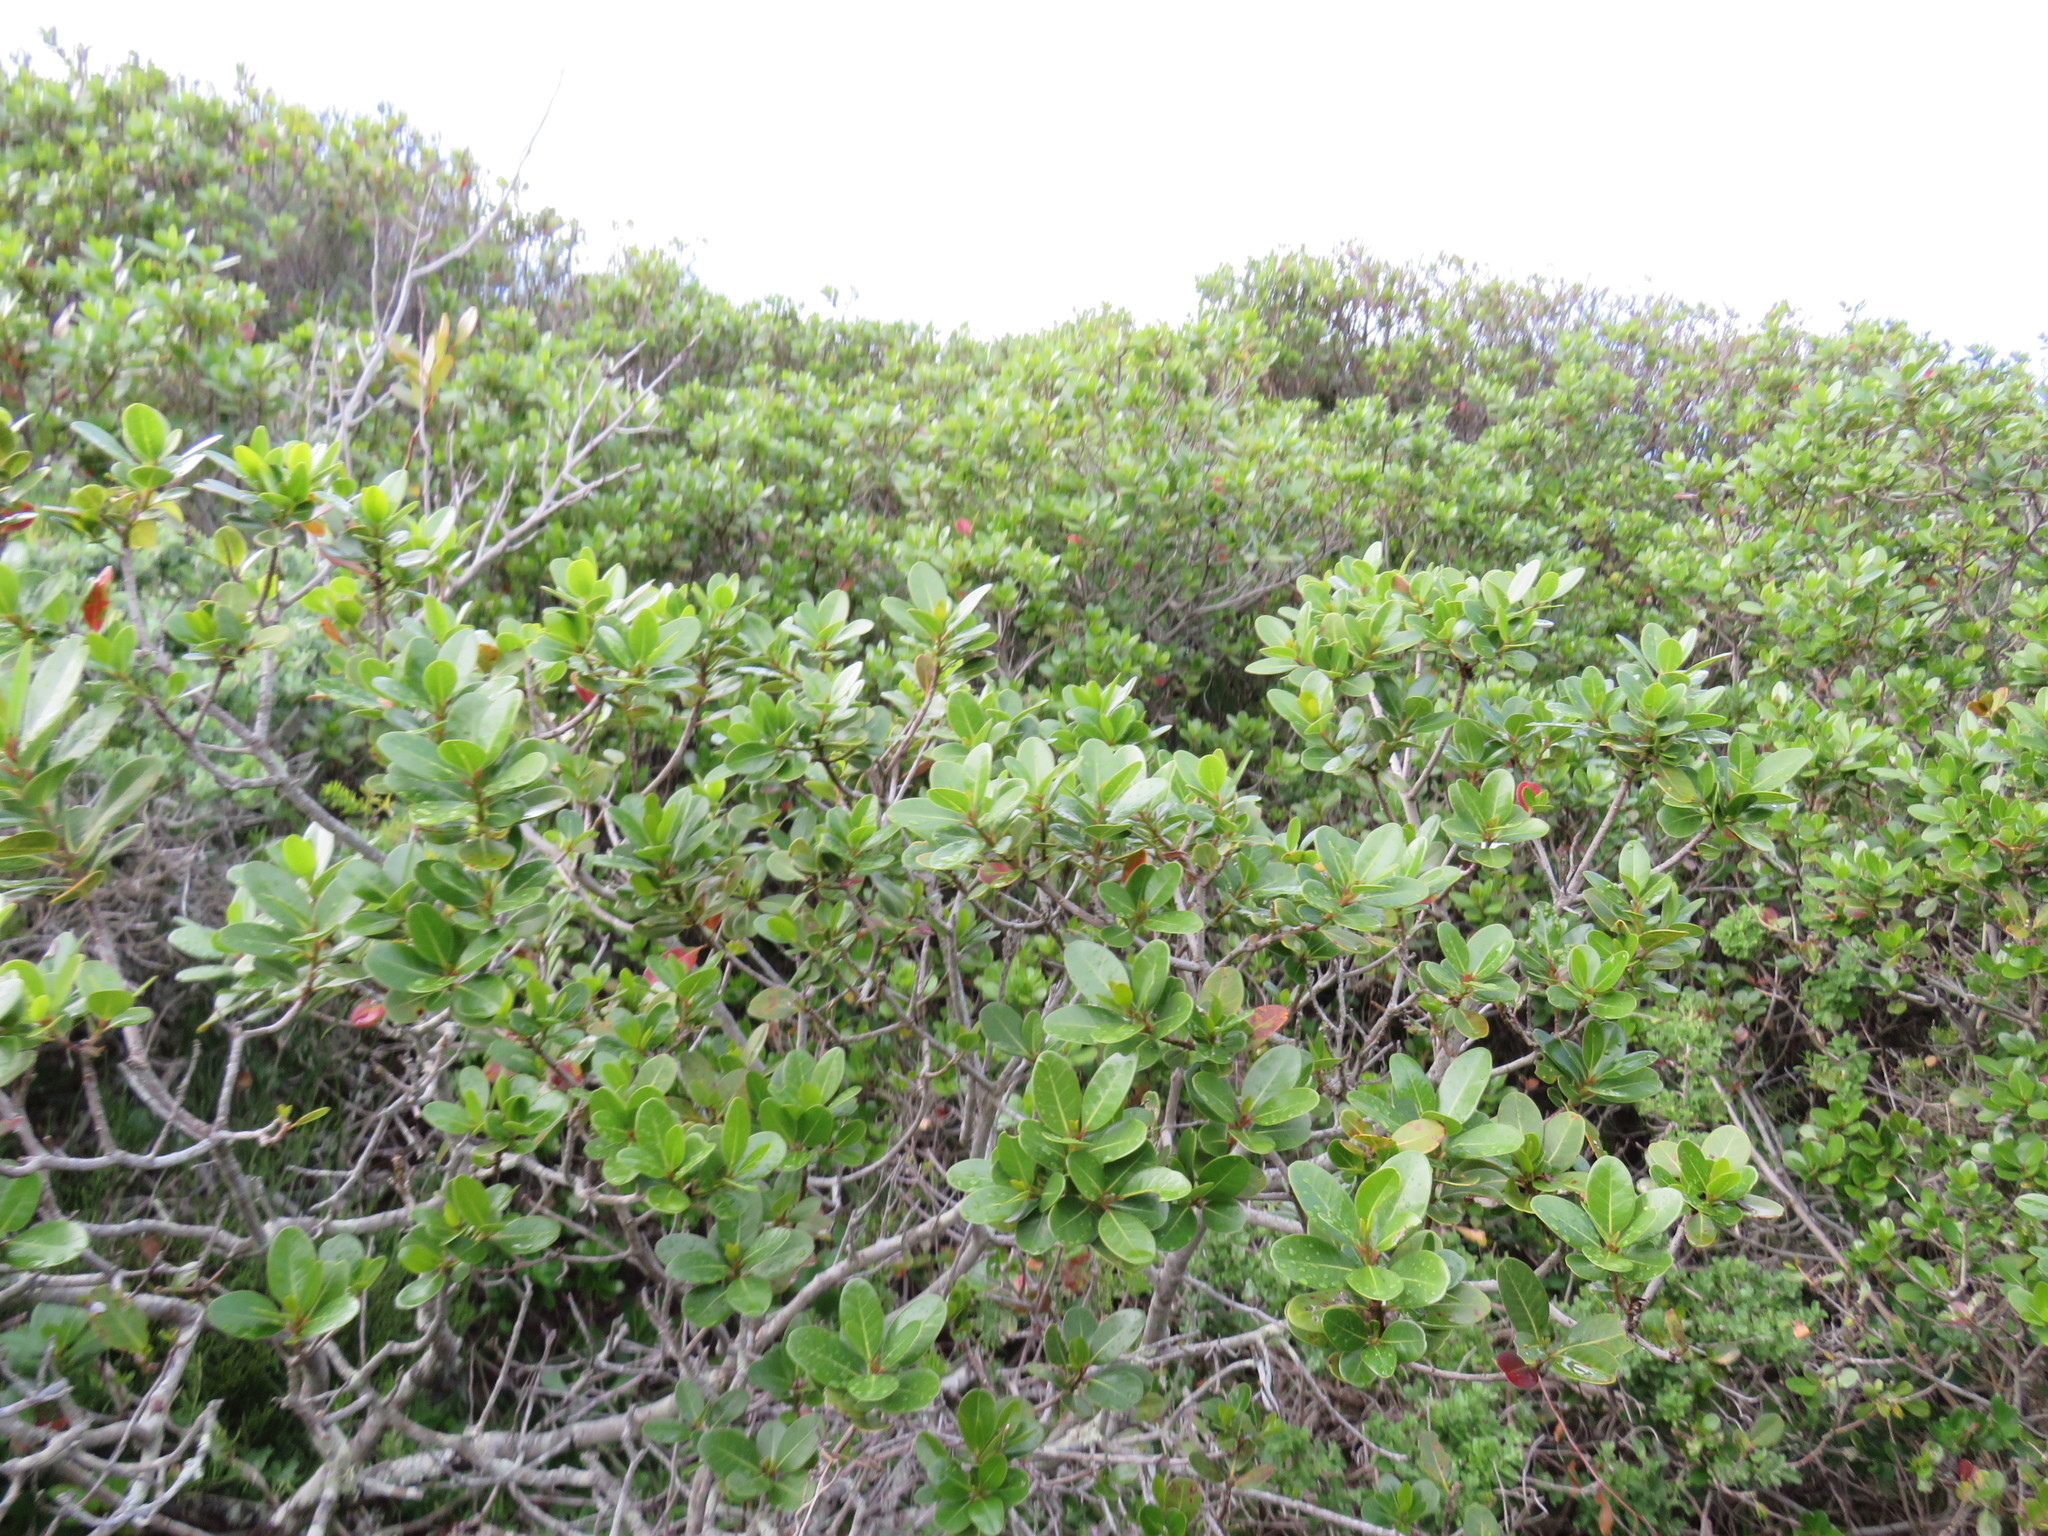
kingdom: Plantae
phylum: Tracheophyta
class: Magnoliopsida
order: Ericales
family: Sapotaceae
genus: Sideroxylon
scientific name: Sideroxylon inerme
